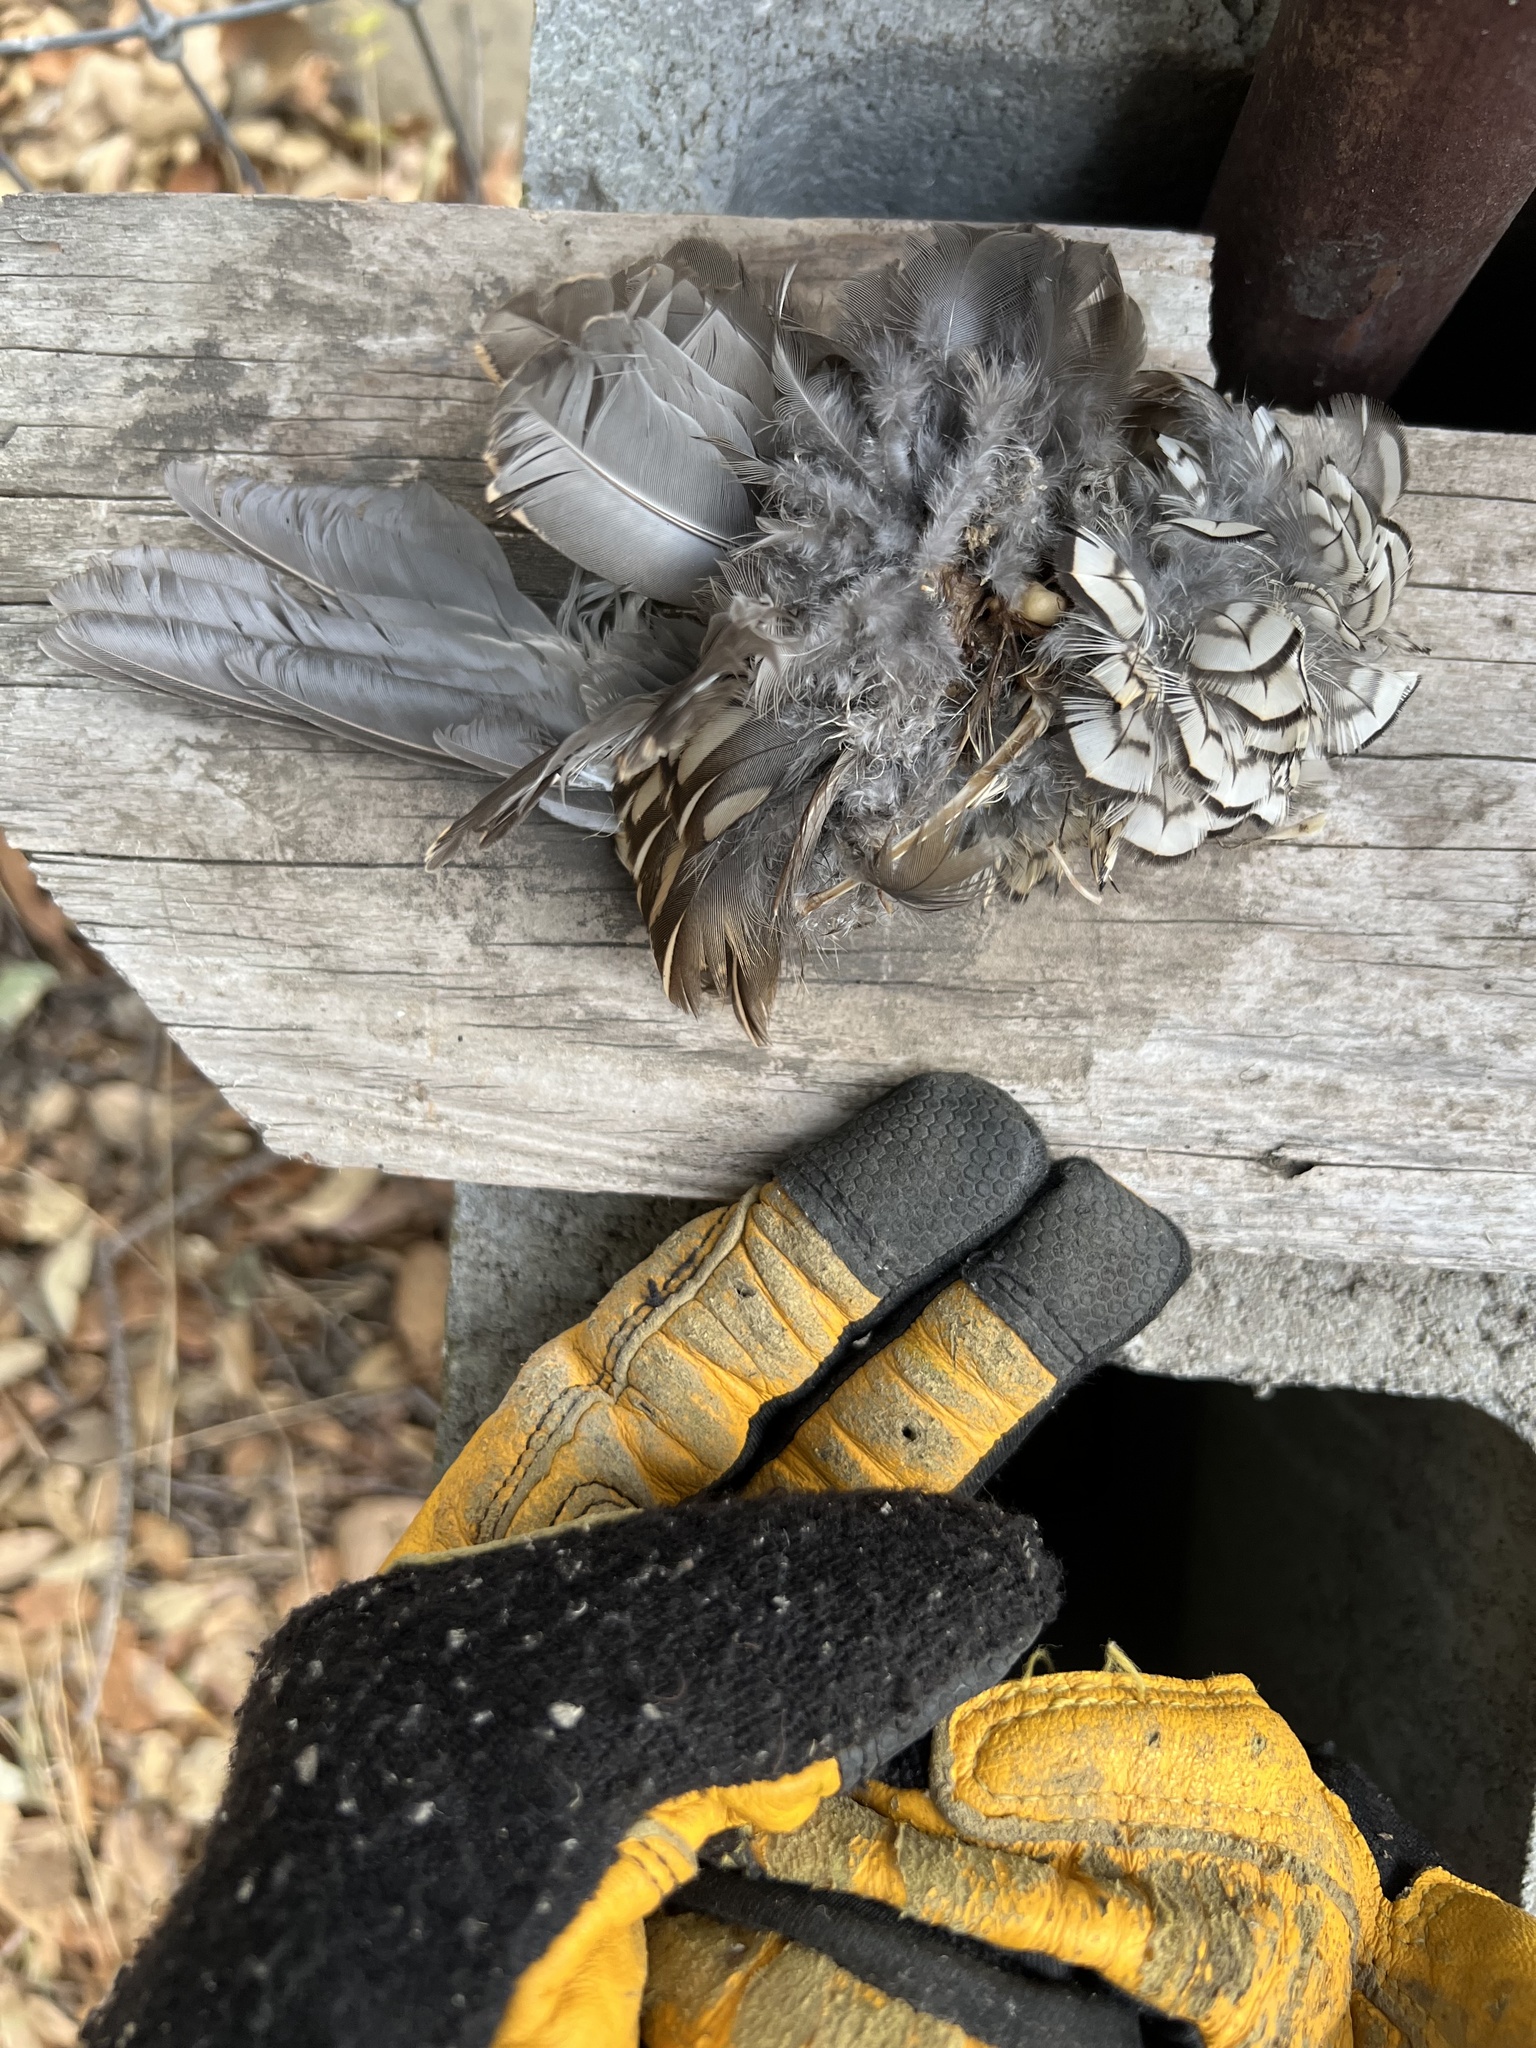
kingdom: Animalia
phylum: Chordata
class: Aves
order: Galliformes
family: Odontophoridae
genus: Callipepla
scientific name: Callipepla californica
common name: California quail
